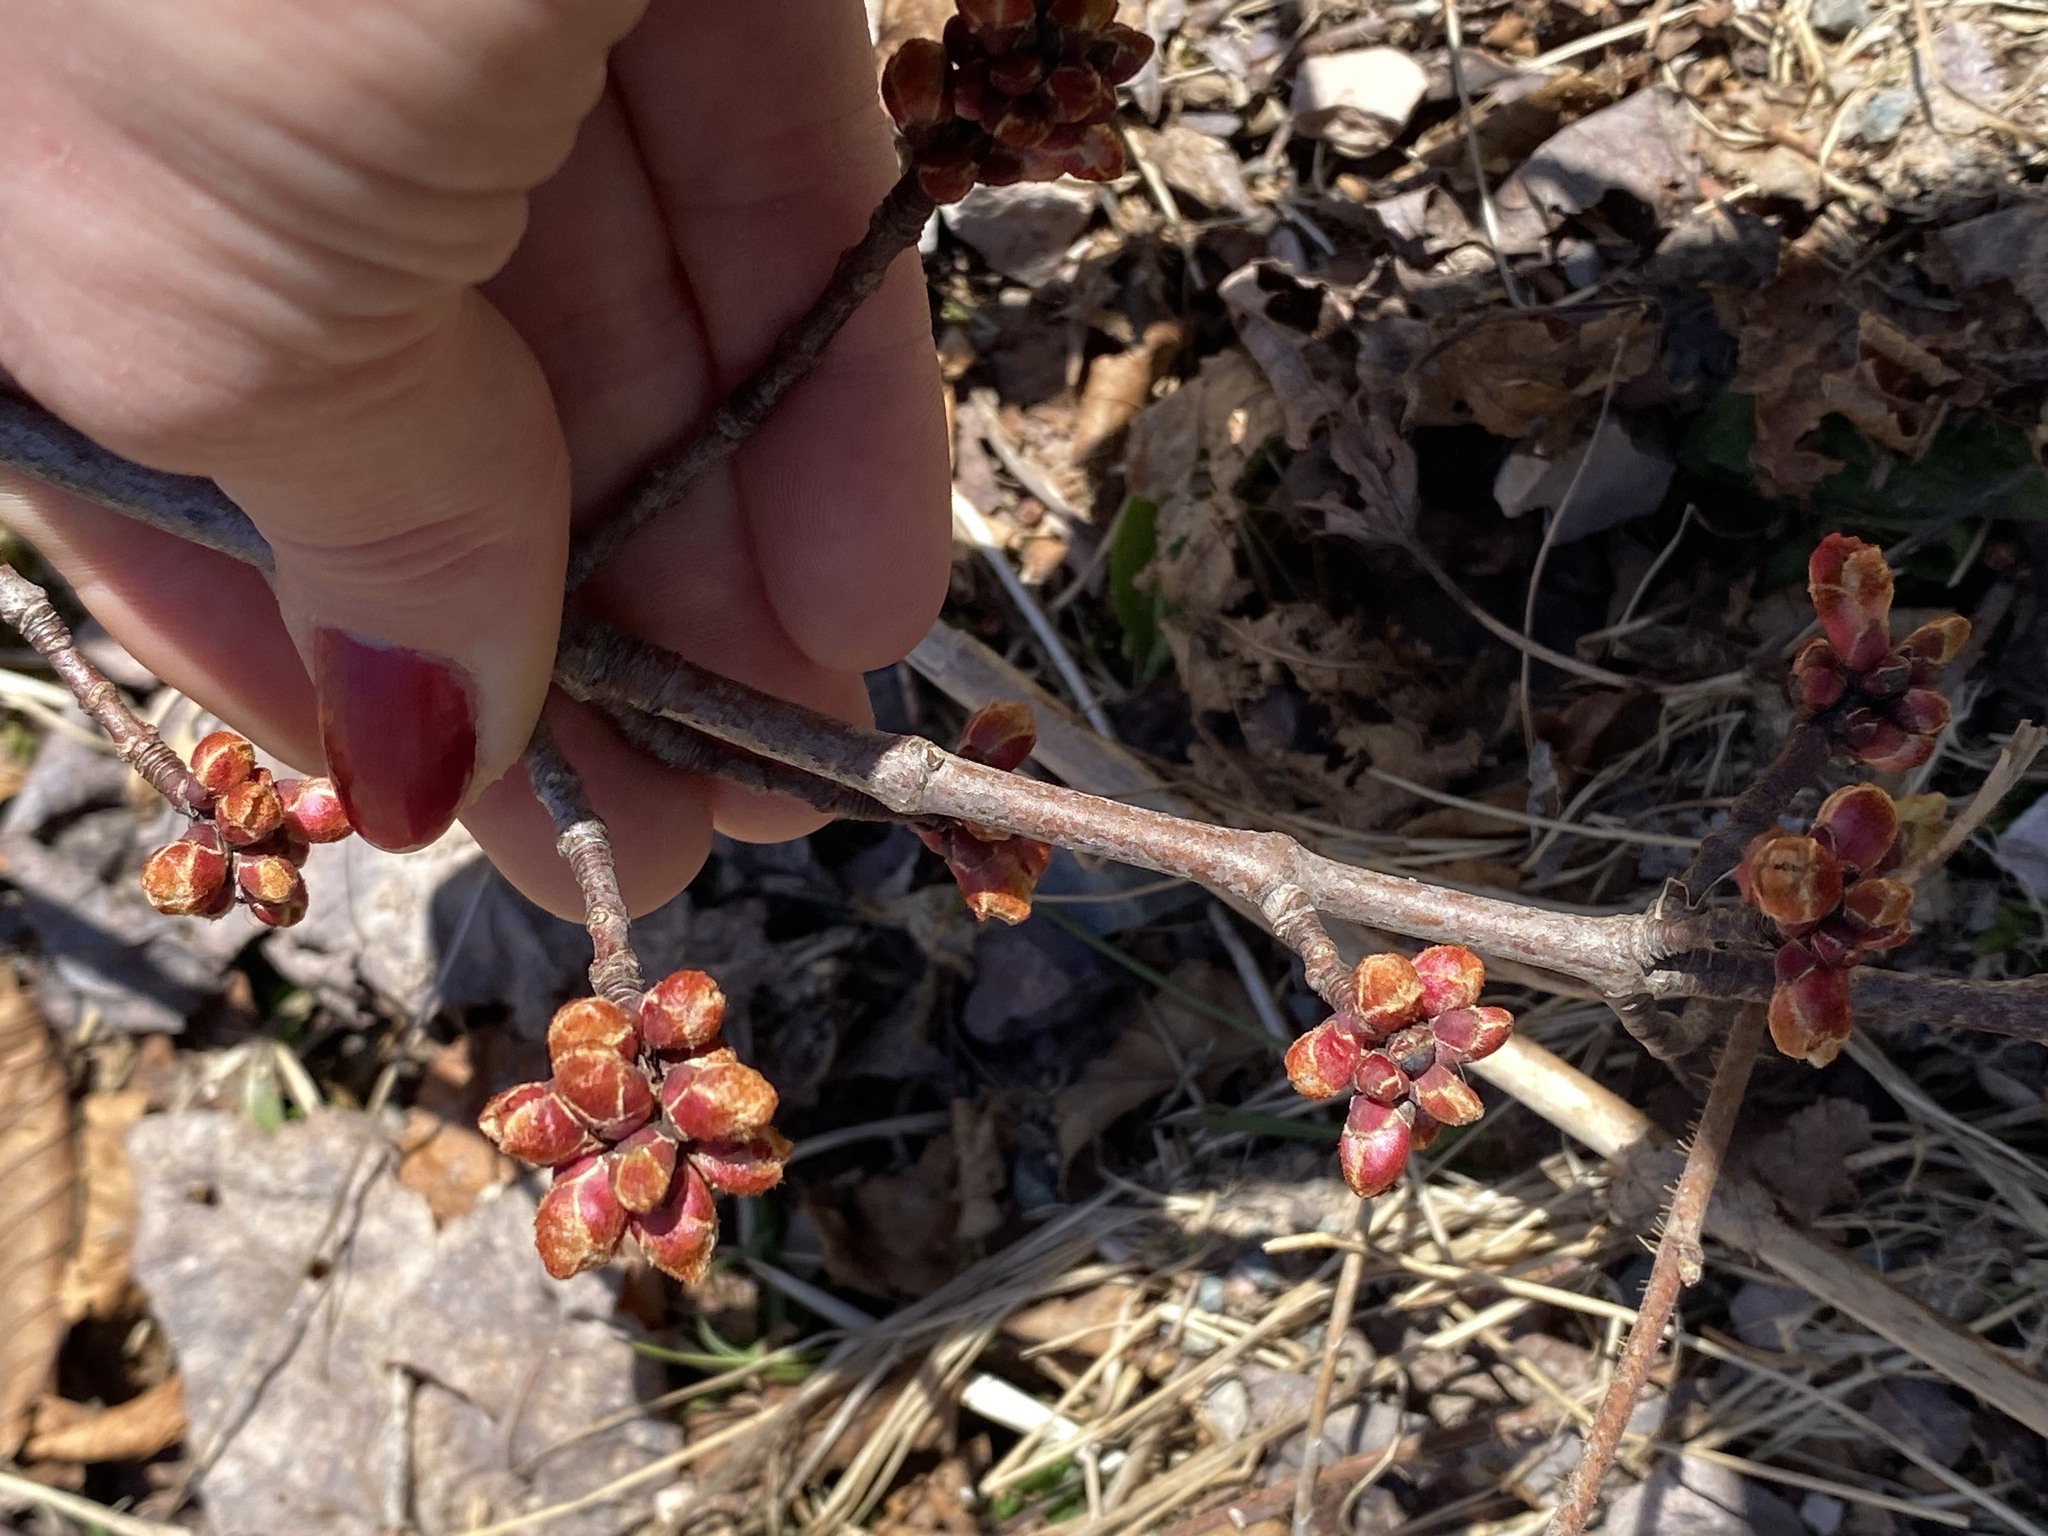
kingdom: Plantae
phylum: Tracheophyta
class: Magnoliopsida
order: Sapindales
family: Sapindaceae
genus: Acer
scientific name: Acer rubrum
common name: Red maple
